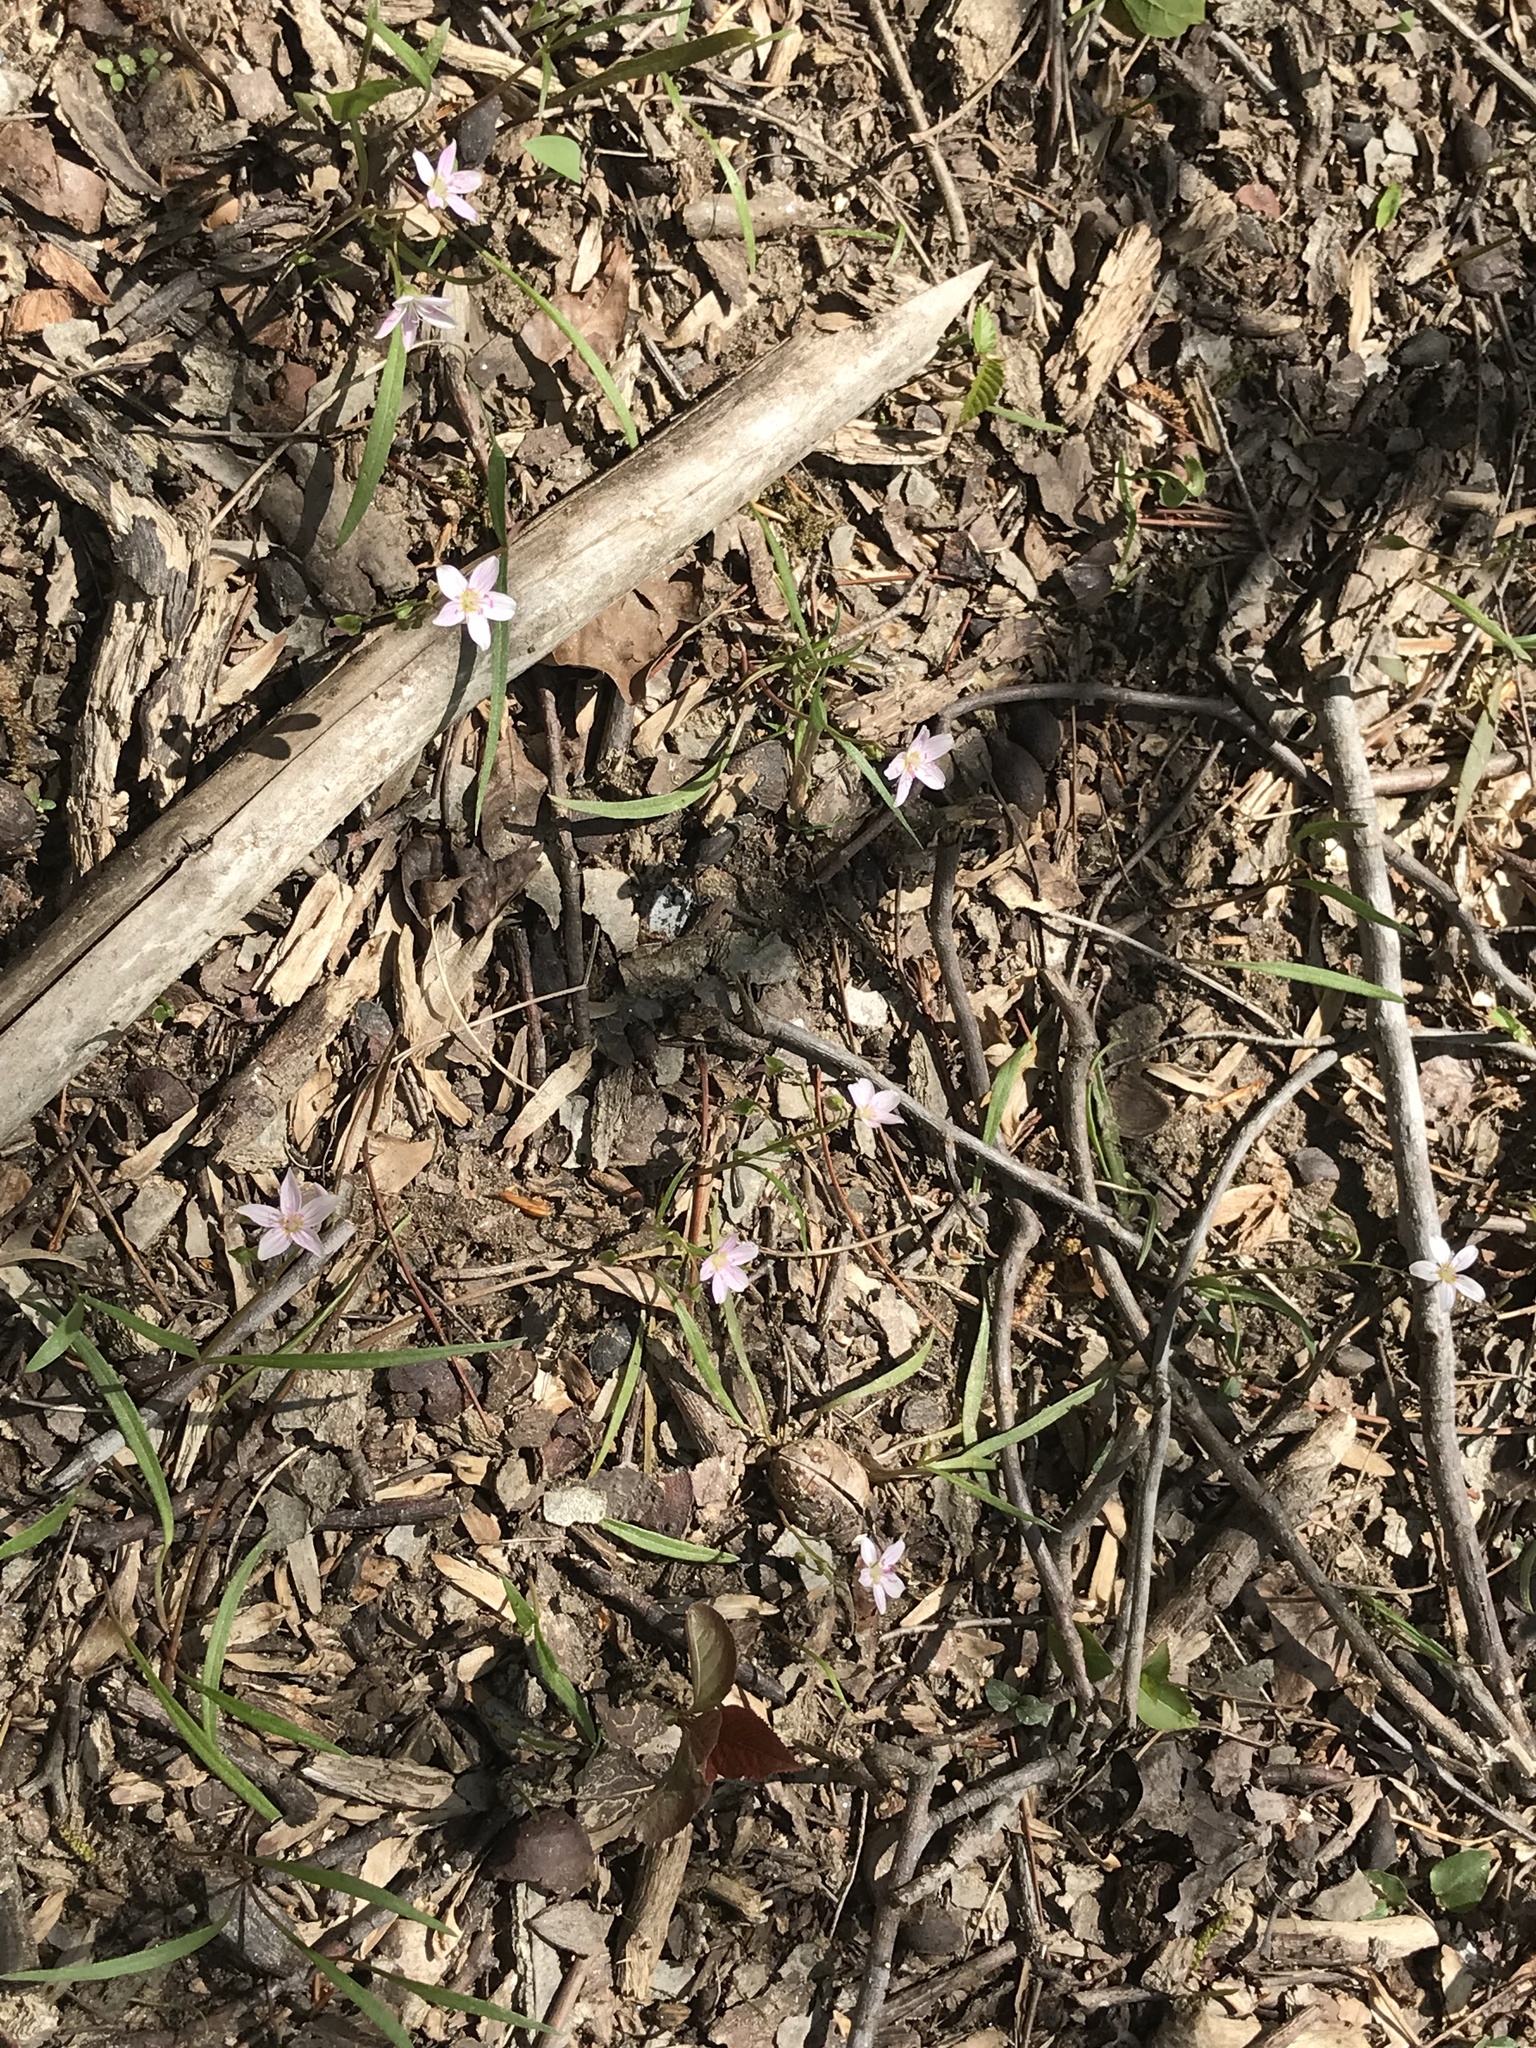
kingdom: Plantae
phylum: Tracheophyta
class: Magnoliopsida
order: Caryophyllales
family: Montiaceae
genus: Claytonia
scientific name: Claytonia virginica
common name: Virginia springbeauty
